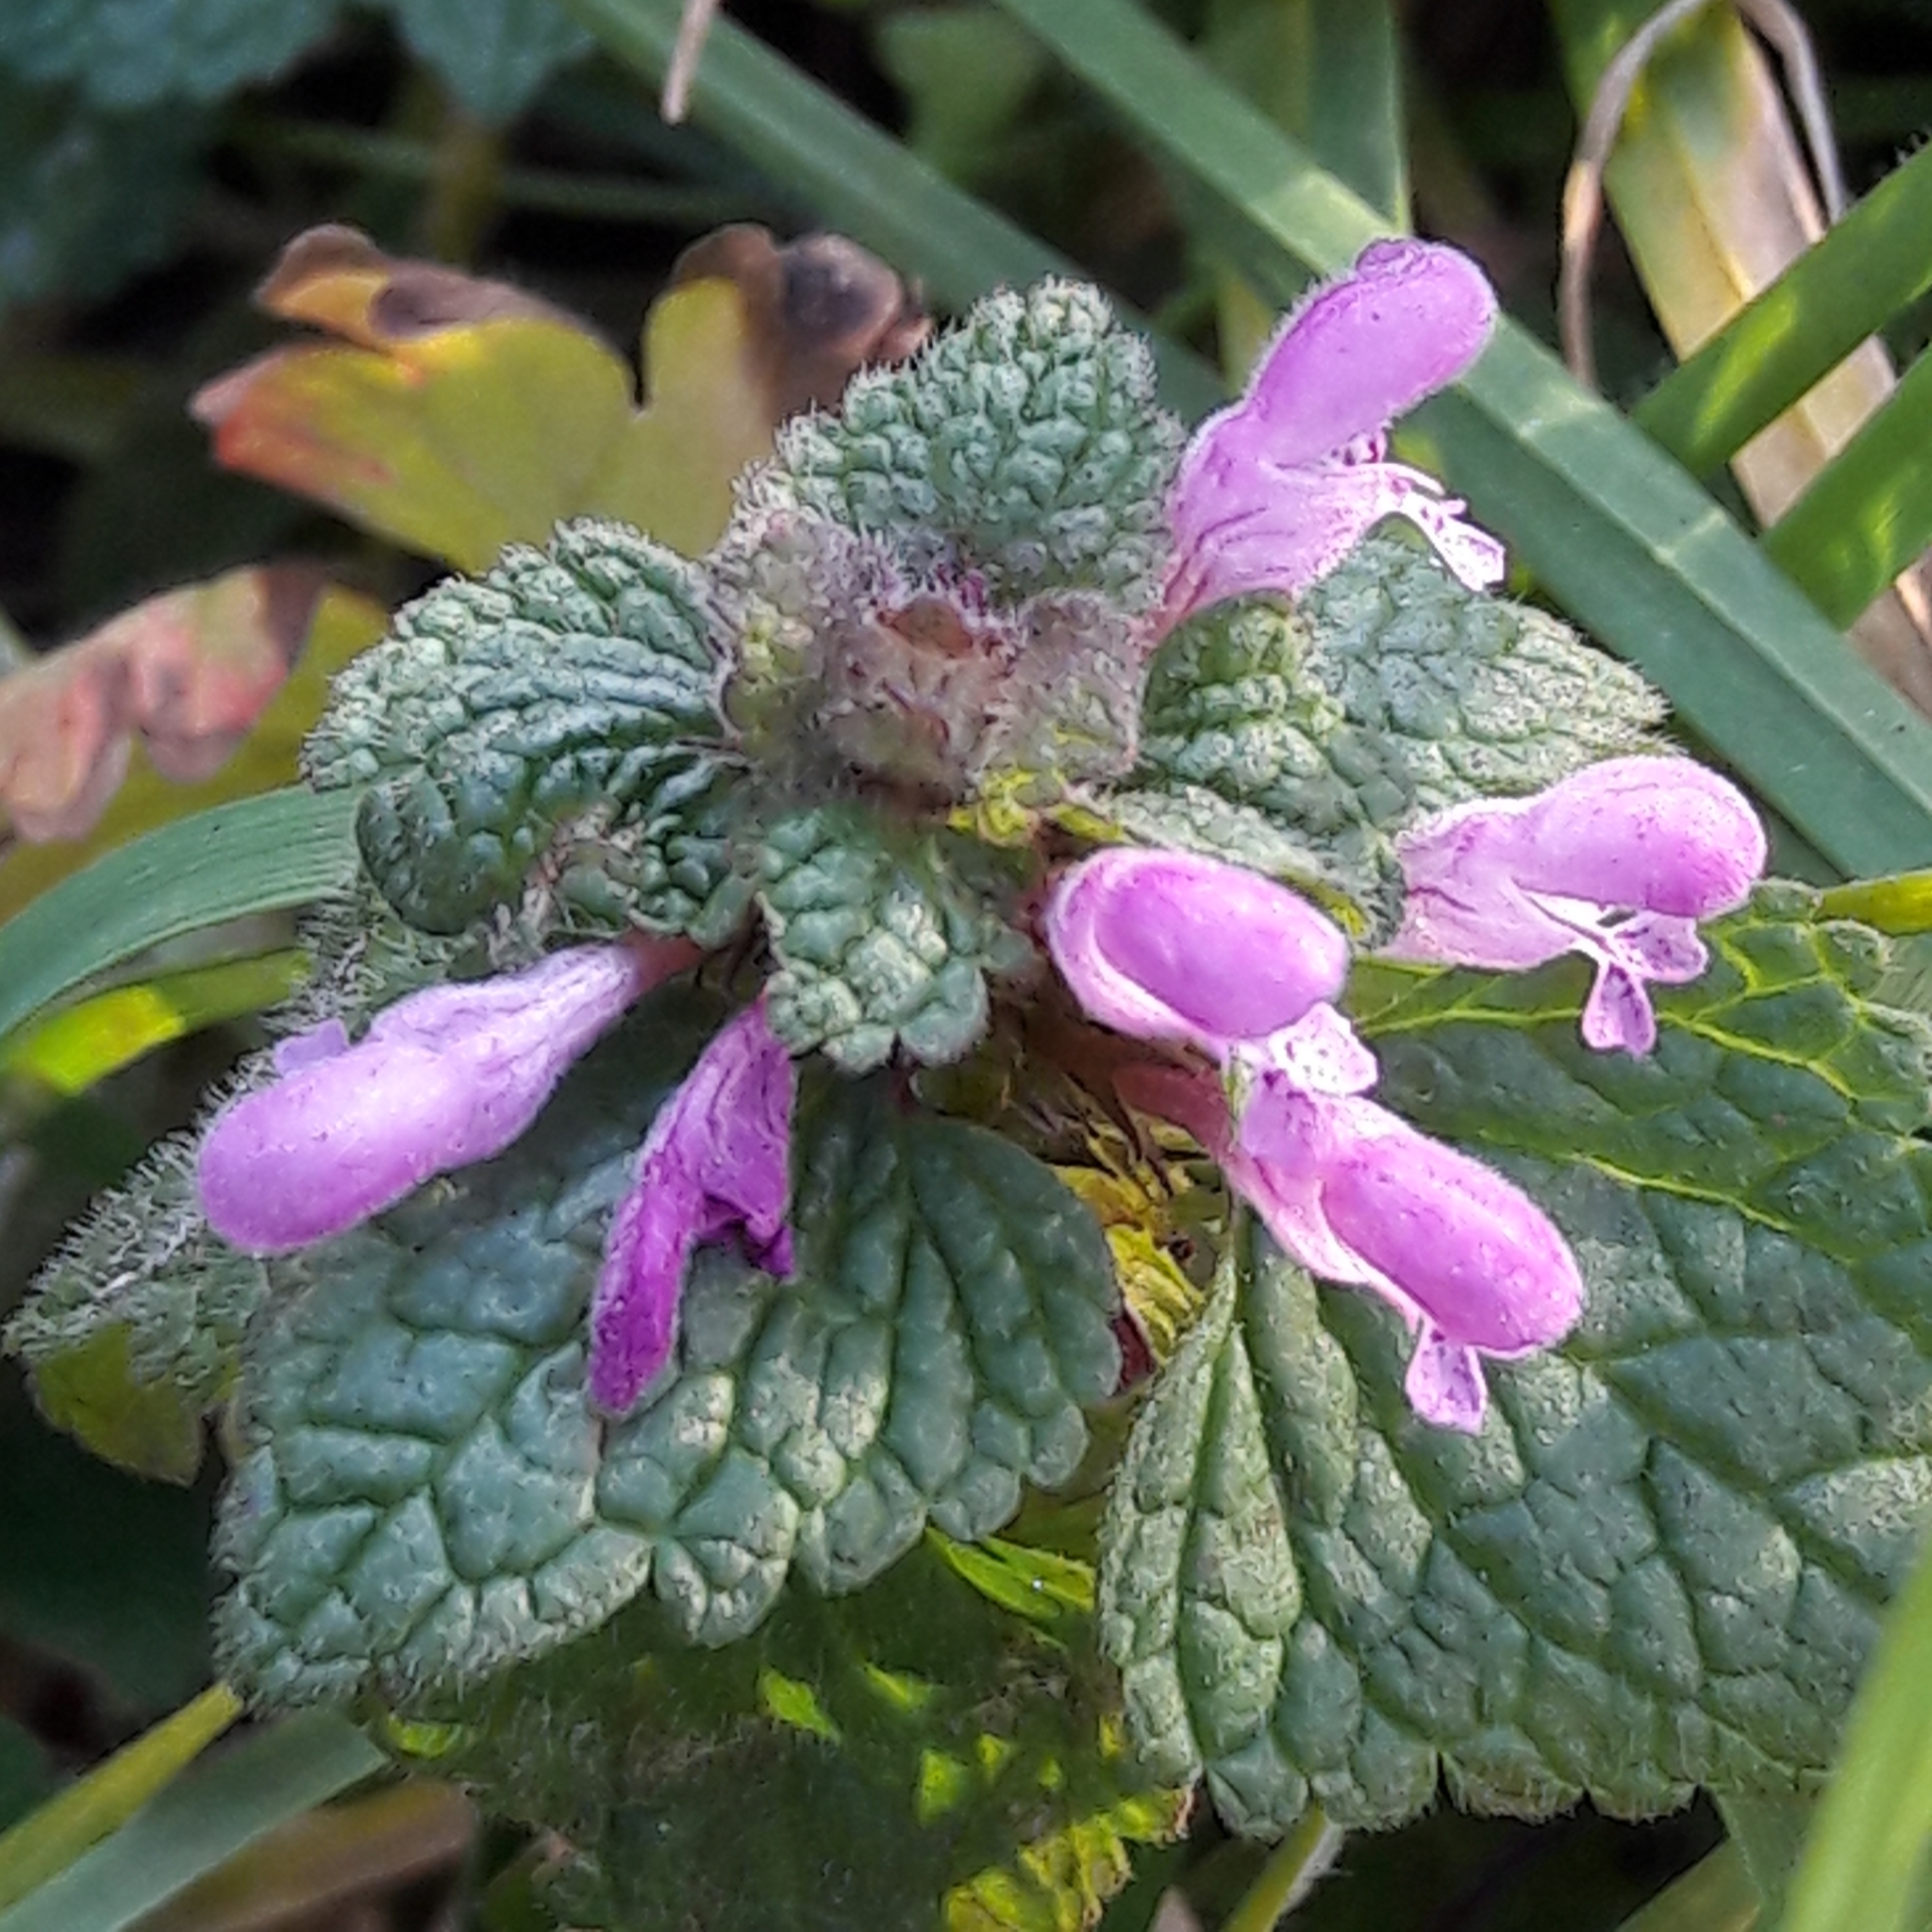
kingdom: Plantae
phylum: Tracheophyta
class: Magnoliopsida
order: Lamiales
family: Lamiaceae
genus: Lamium
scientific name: Lamium purpureum
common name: Red dead-nettle
